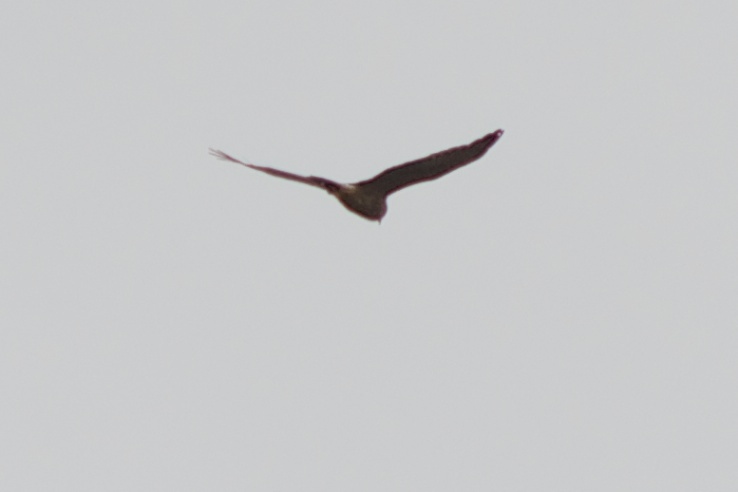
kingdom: Animalia
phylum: Chordata
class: Aves
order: Accipitriformes
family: Accipitridae
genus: Circus
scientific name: Circus approximans
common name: Swamp harrier
